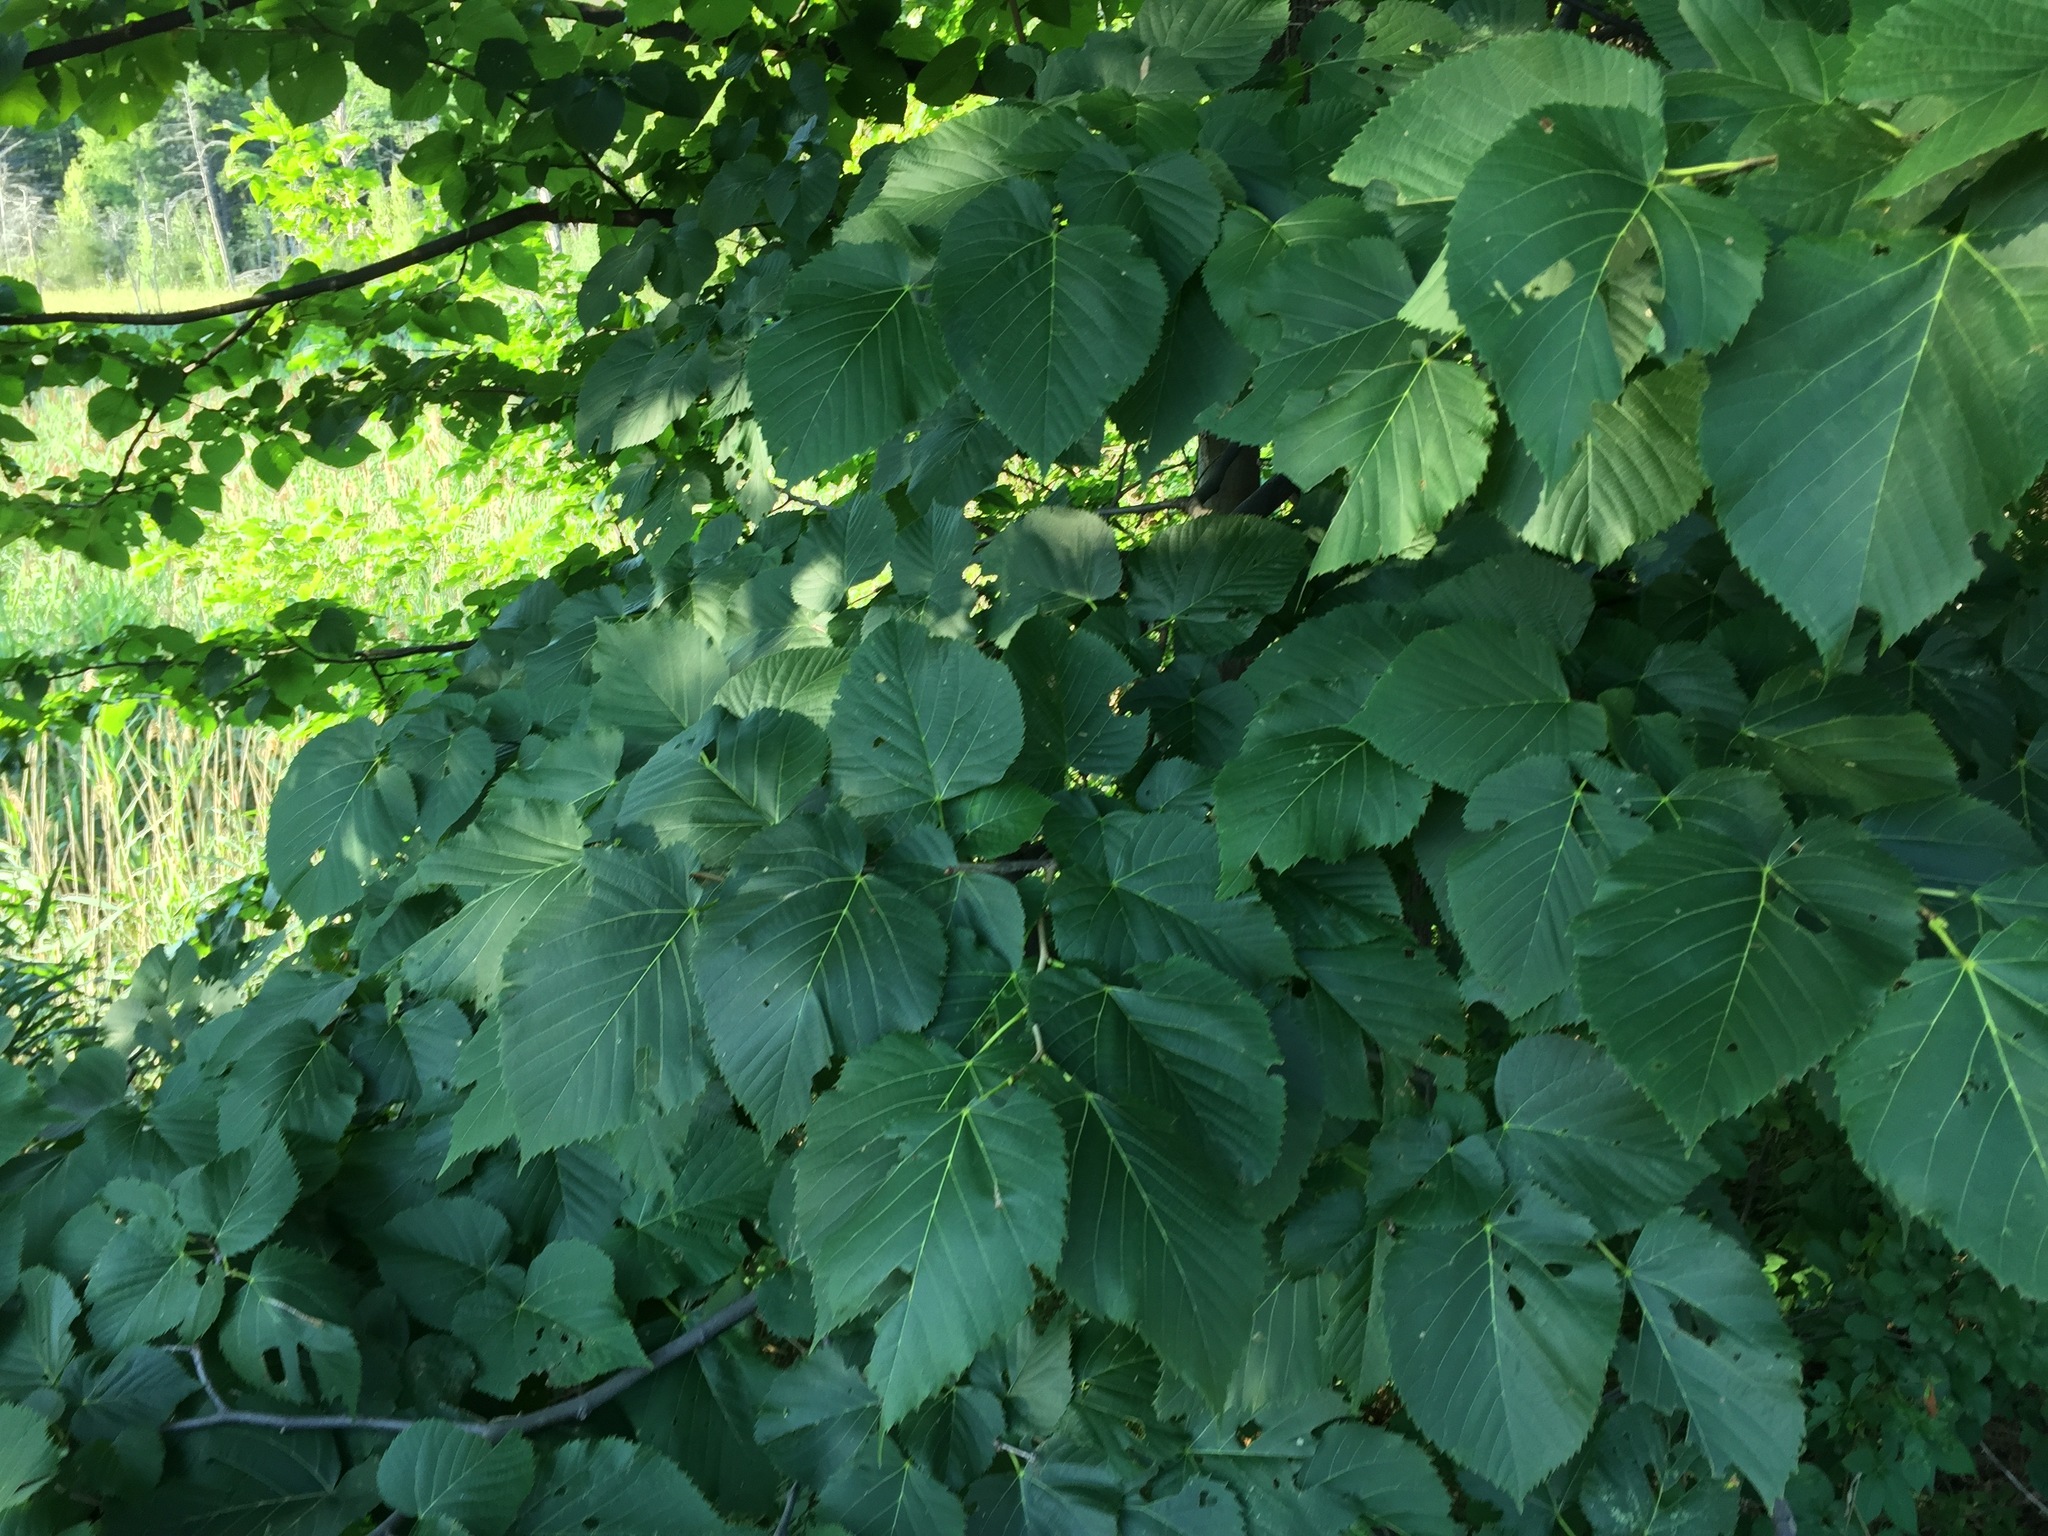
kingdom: Plantae
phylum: Tracheophyta
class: Magnoliopsida
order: Malvales
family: Malvaceae
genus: Tilia
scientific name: Tilia americana
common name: Basswood
